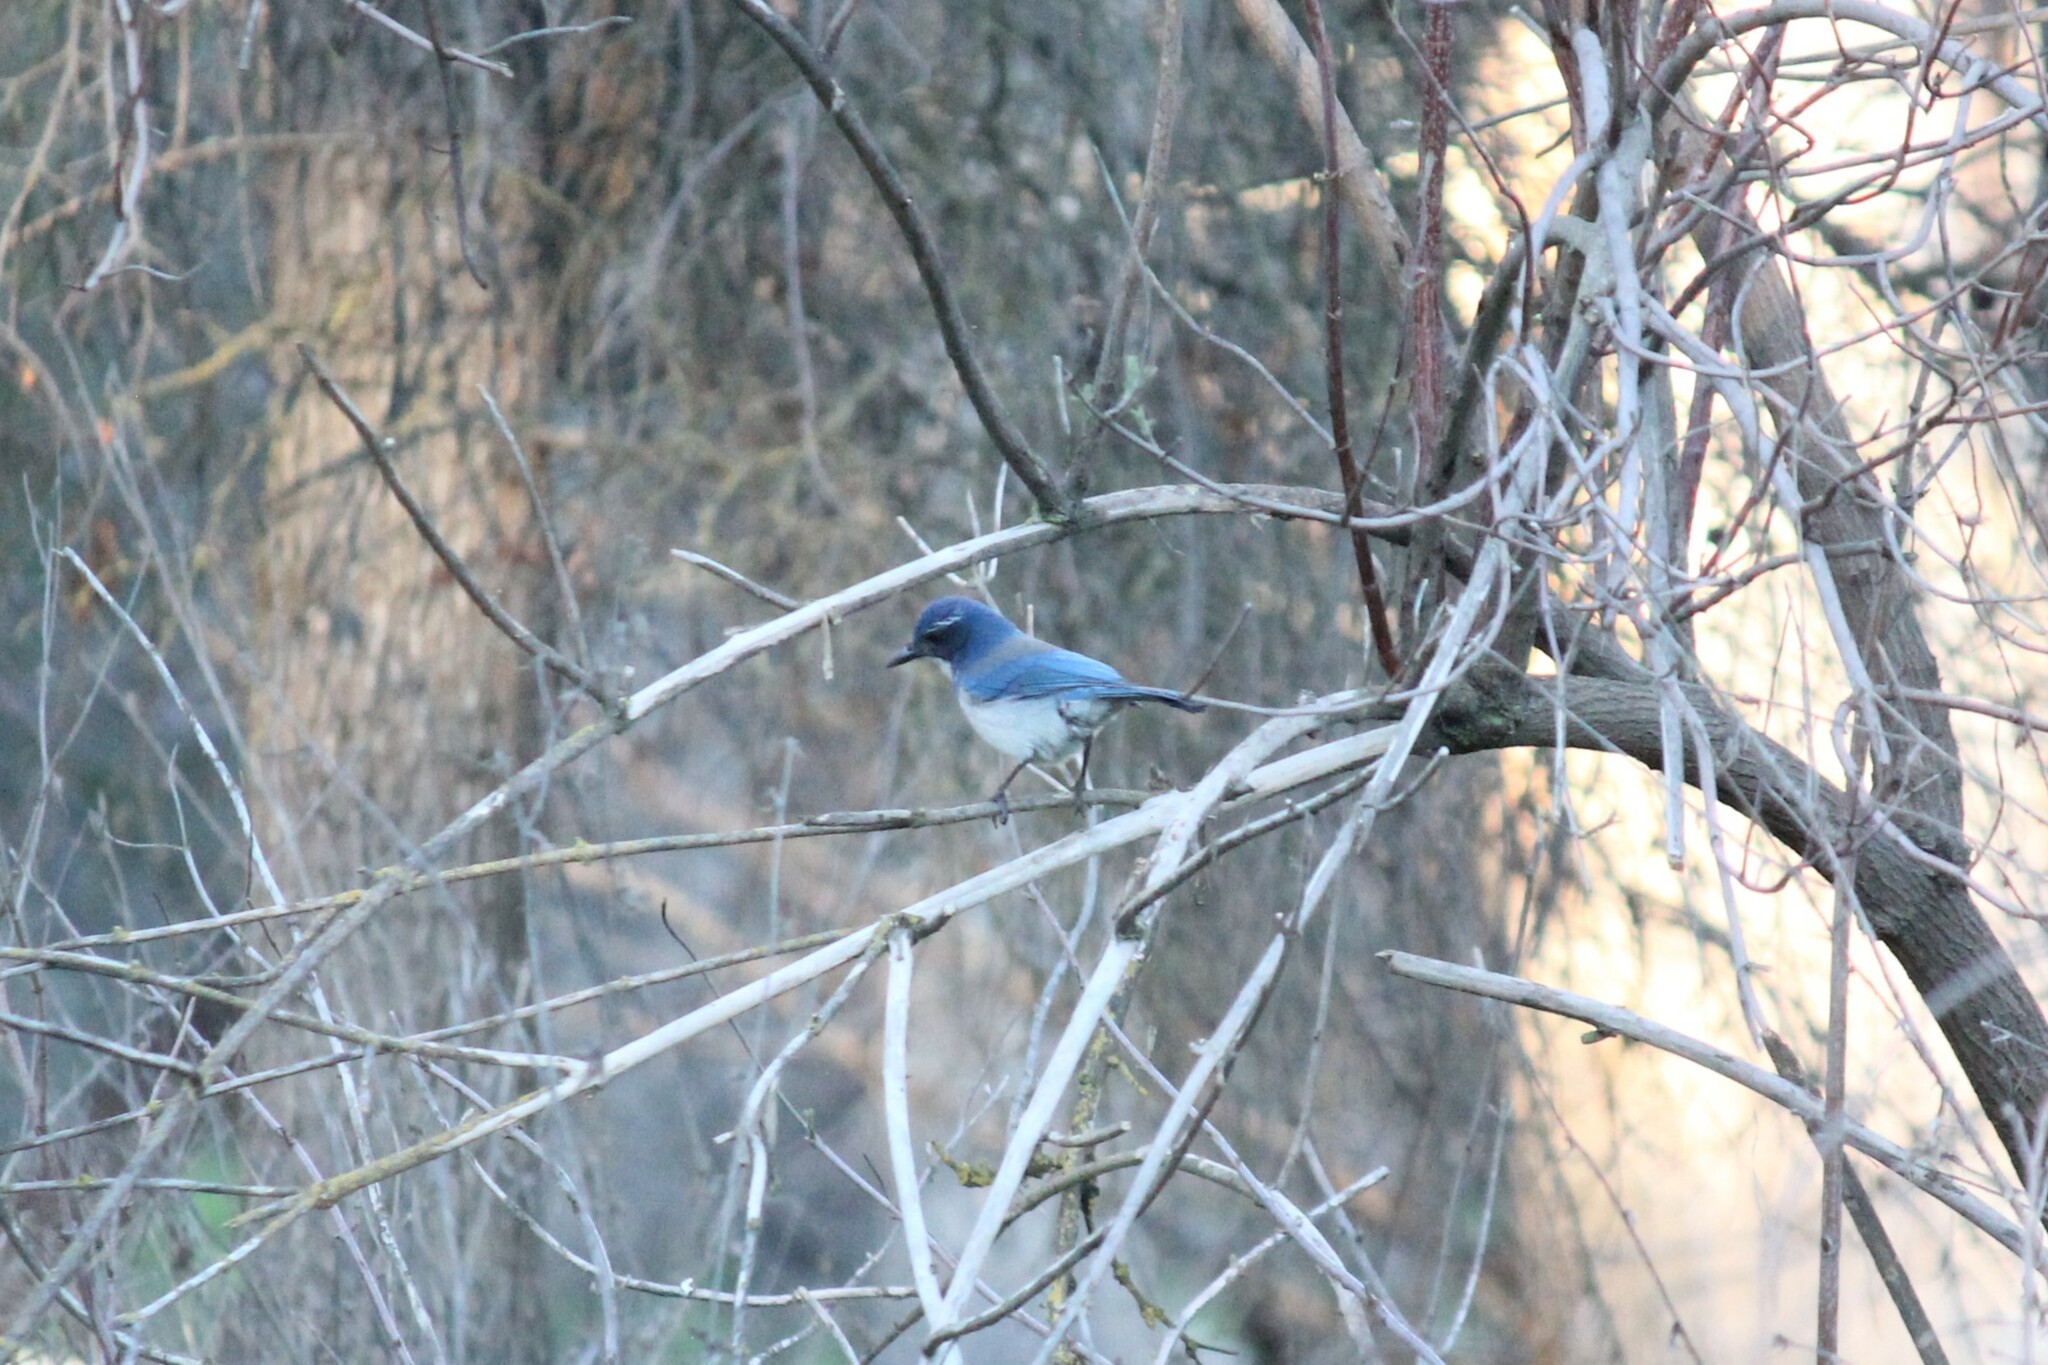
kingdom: Animalia
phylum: Chordata
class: Aves
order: Passeriformes
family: Corvidae
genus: Aphelocoma
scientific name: Aphelocoma californica
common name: California scrub-jay
